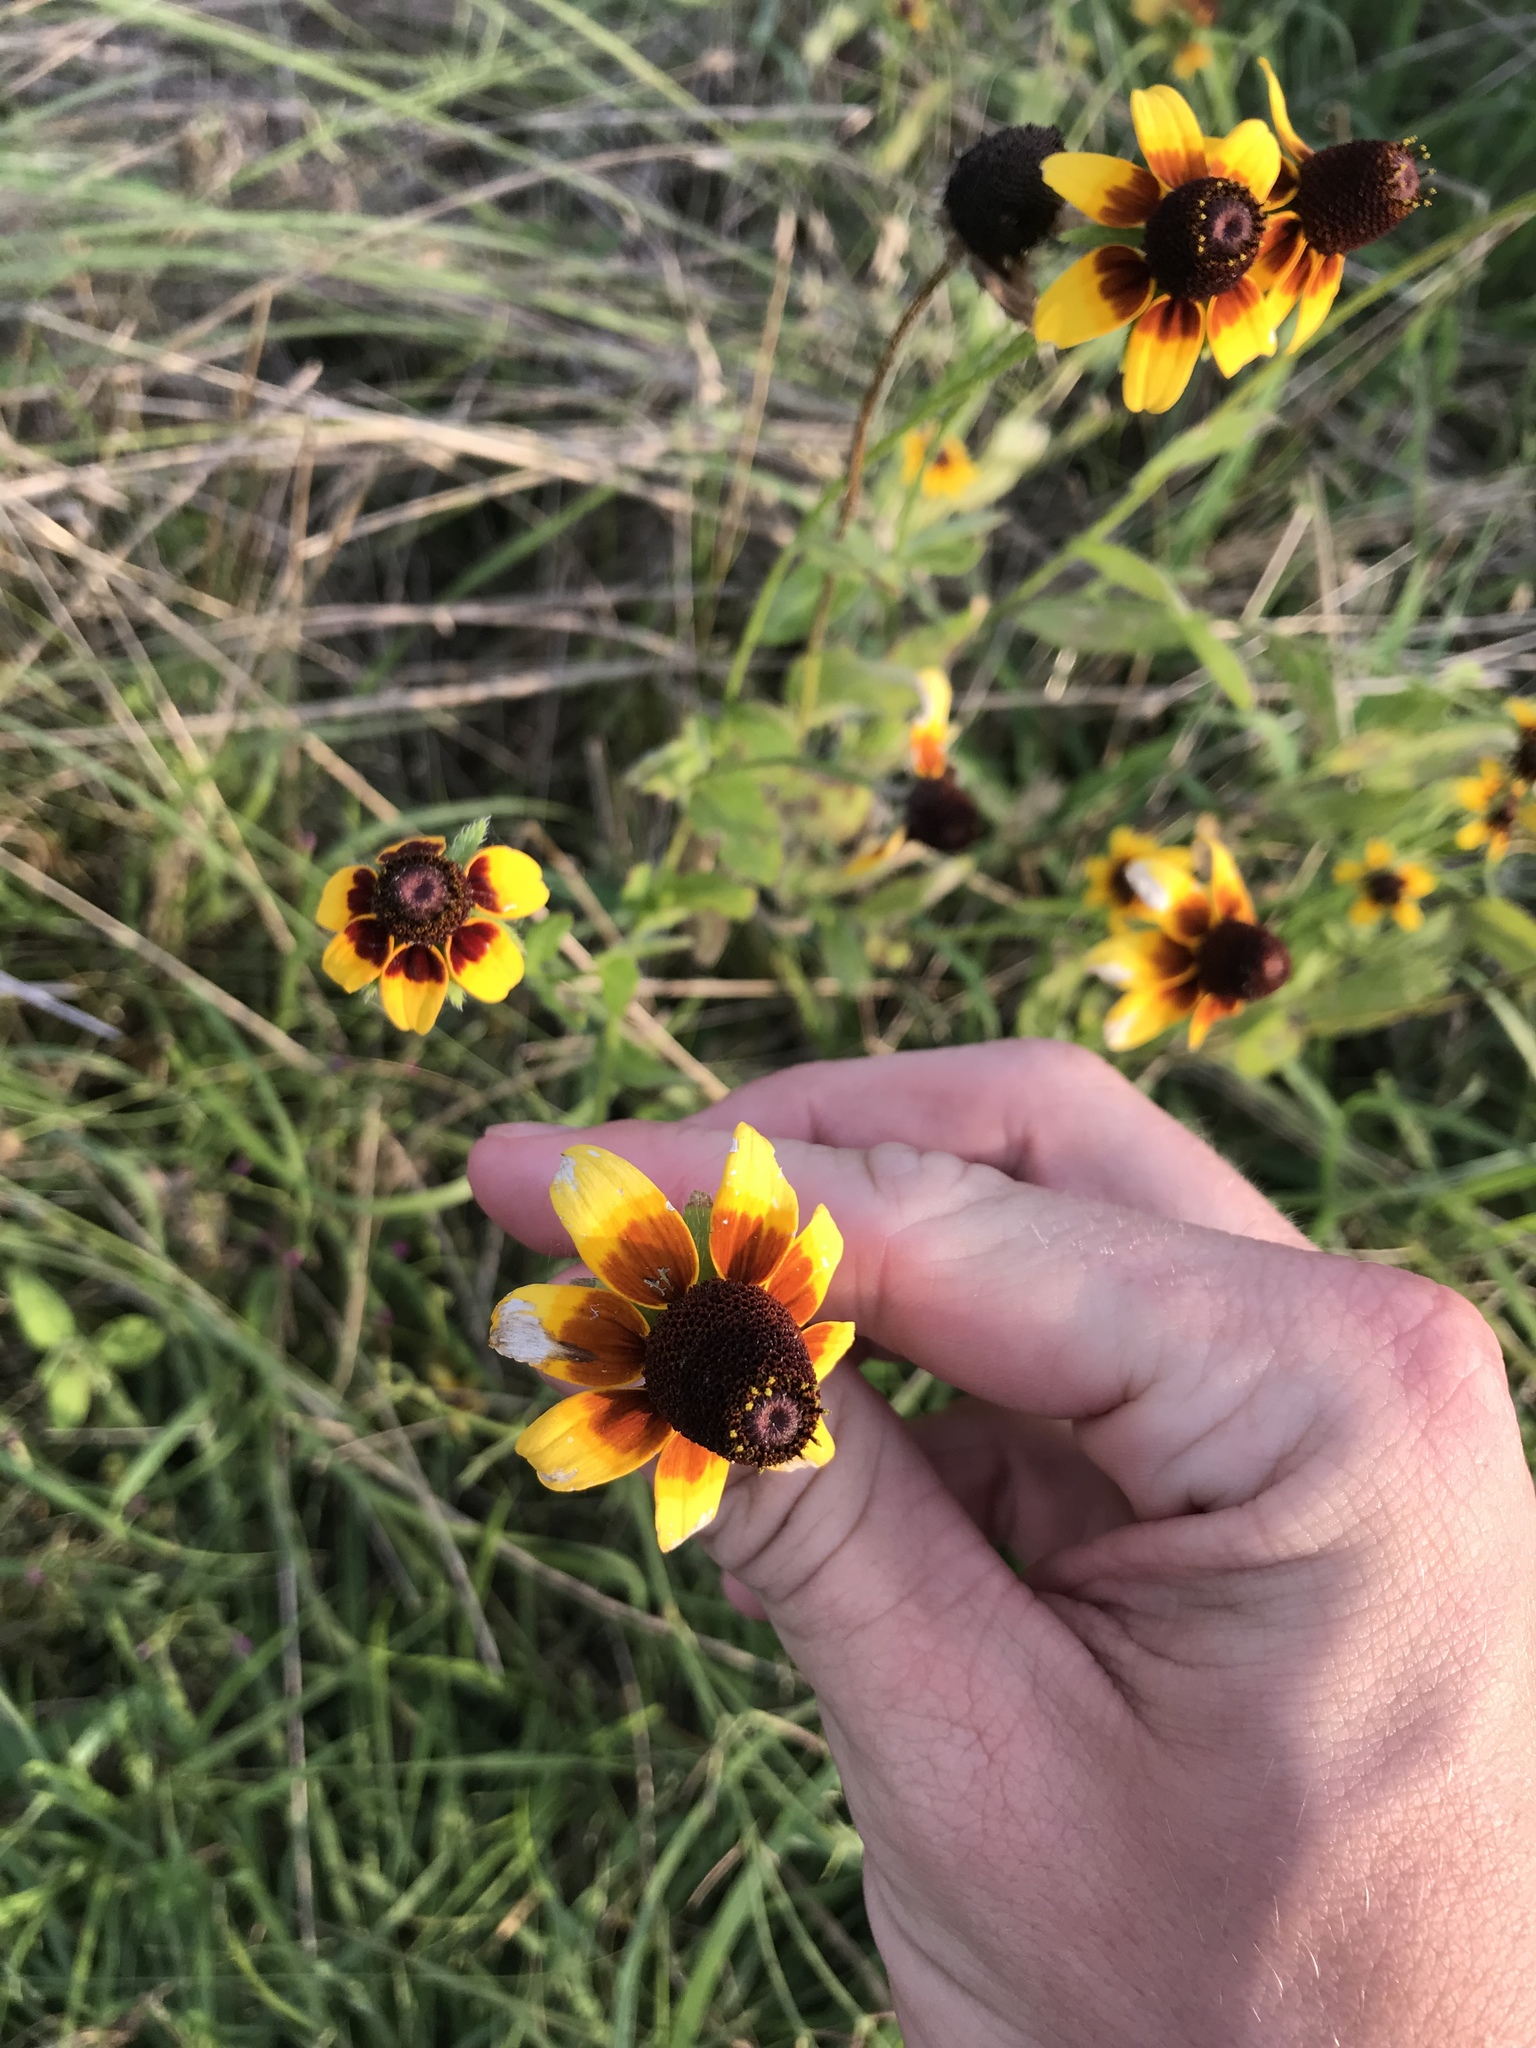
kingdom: Plantae
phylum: Tracheophyta
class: Magnoliopsida
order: Asterales
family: Asteraceae
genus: Rudbeckia
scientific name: Rudbeckia hirta
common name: Black-eyed-susan
